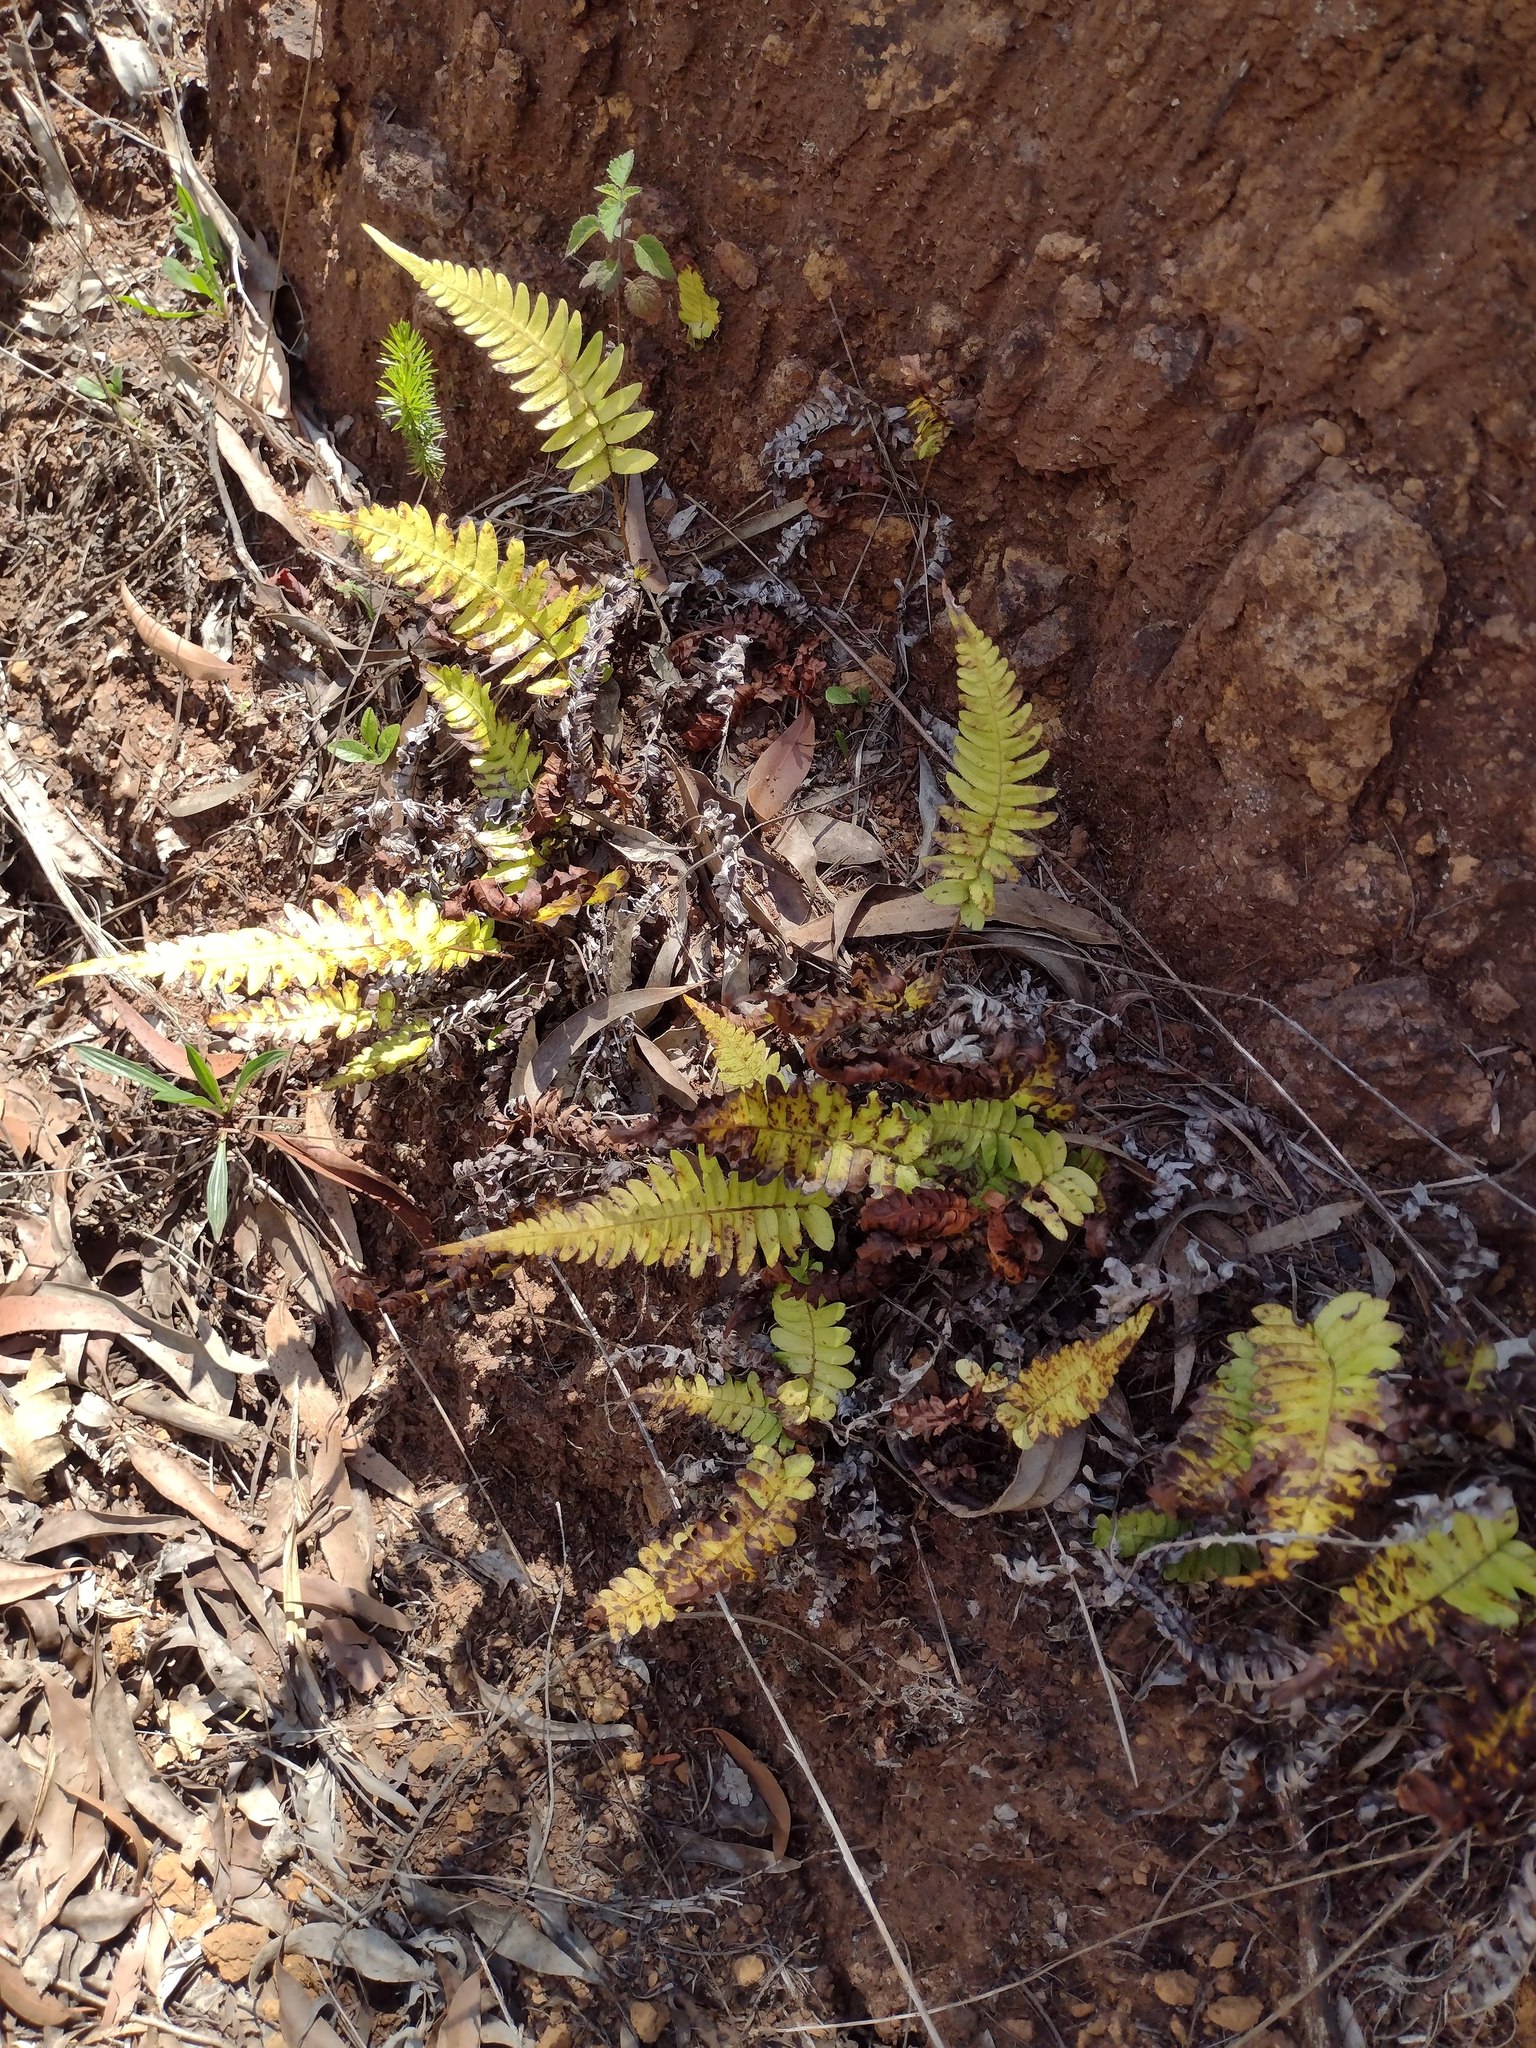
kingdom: Plantae
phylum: Tracheophyta
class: Polypodiopsida
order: Polypodiales
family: Blechnaceae
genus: Blechnum
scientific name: Blechnum appendiculatum
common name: Palm fern
